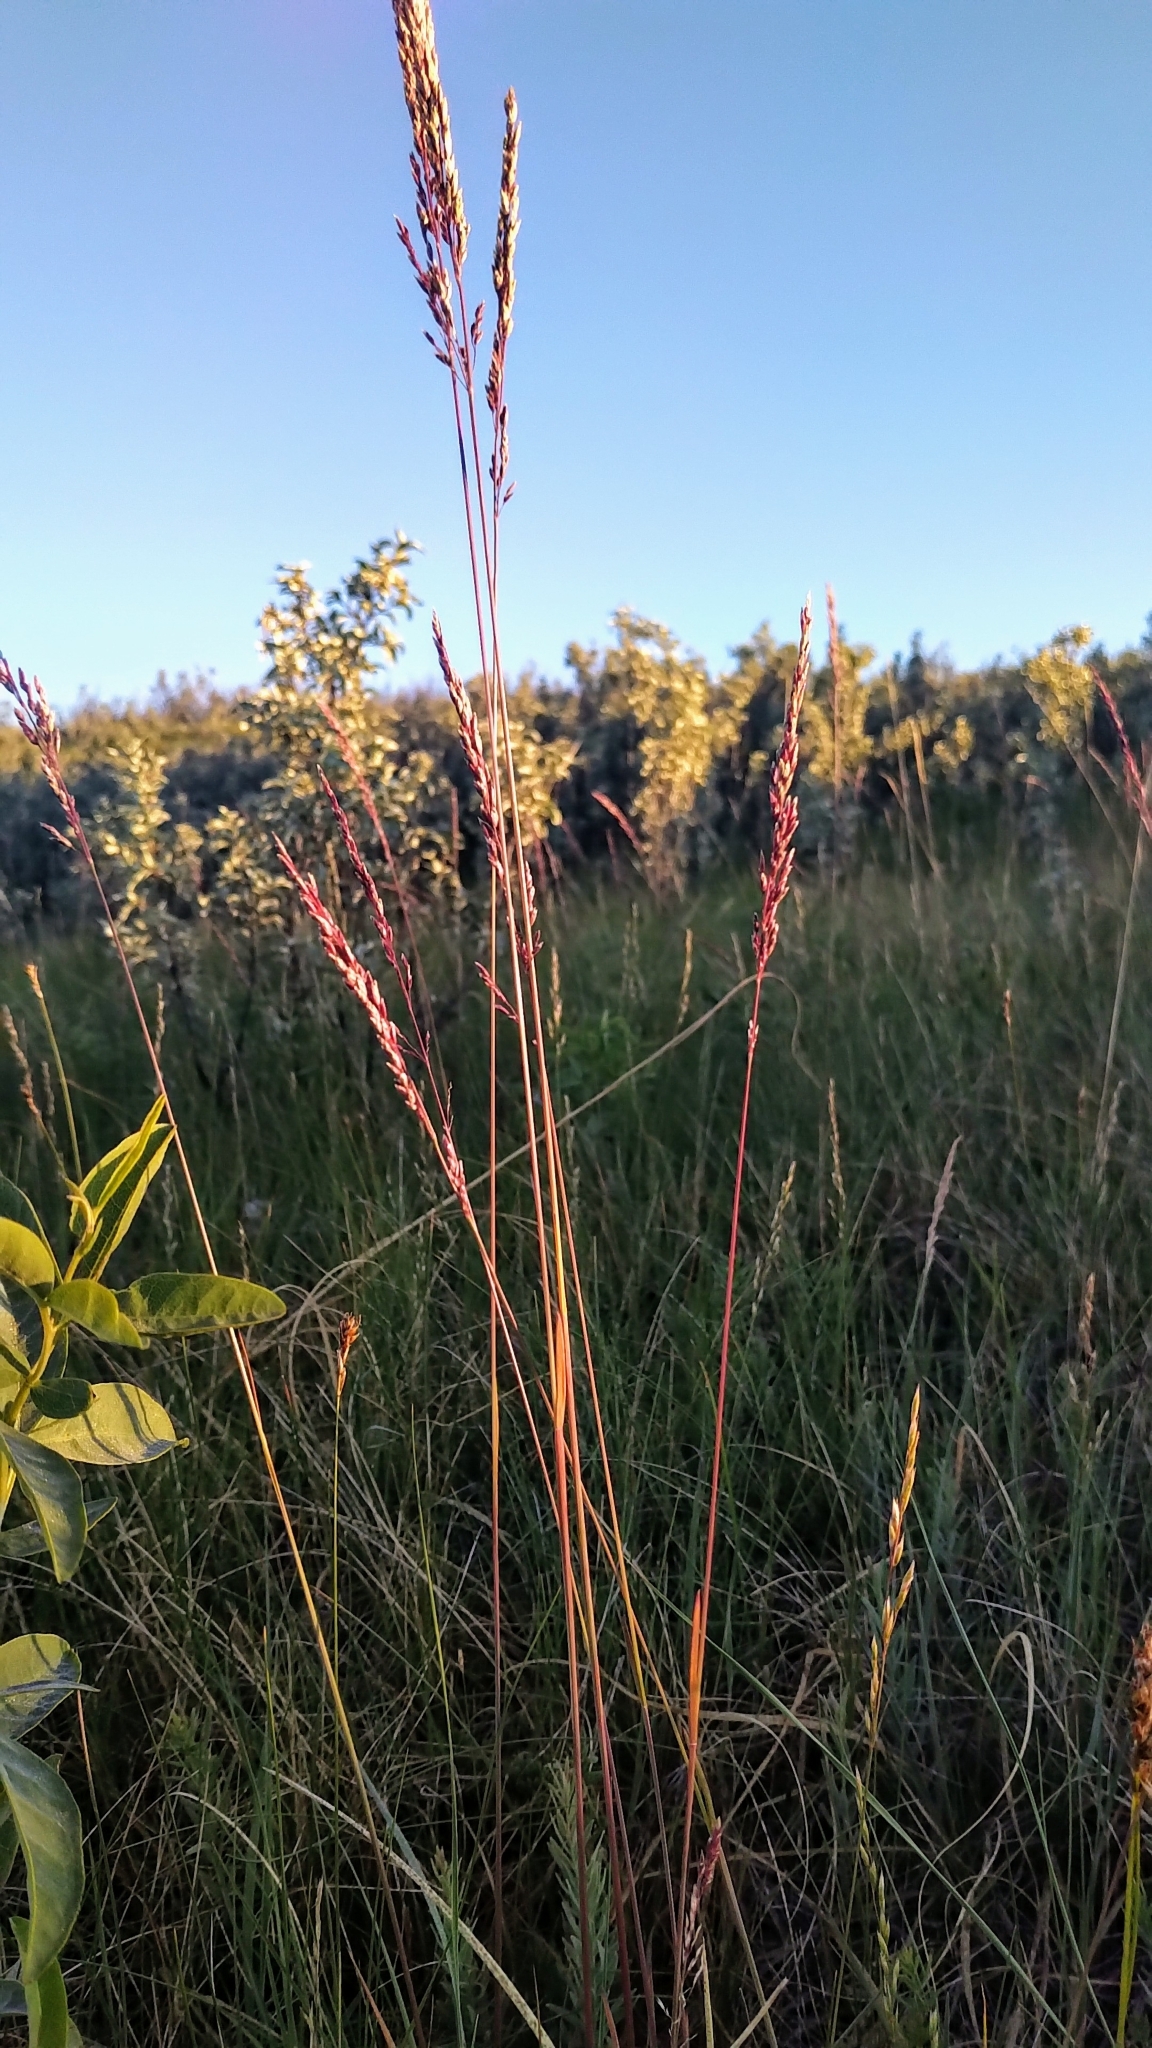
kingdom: Plantae
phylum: Tracheophyta
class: Liliopsida
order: Poales
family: Poaceae
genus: Festuca
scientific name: Festuca hallii
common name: Hall's fescue
